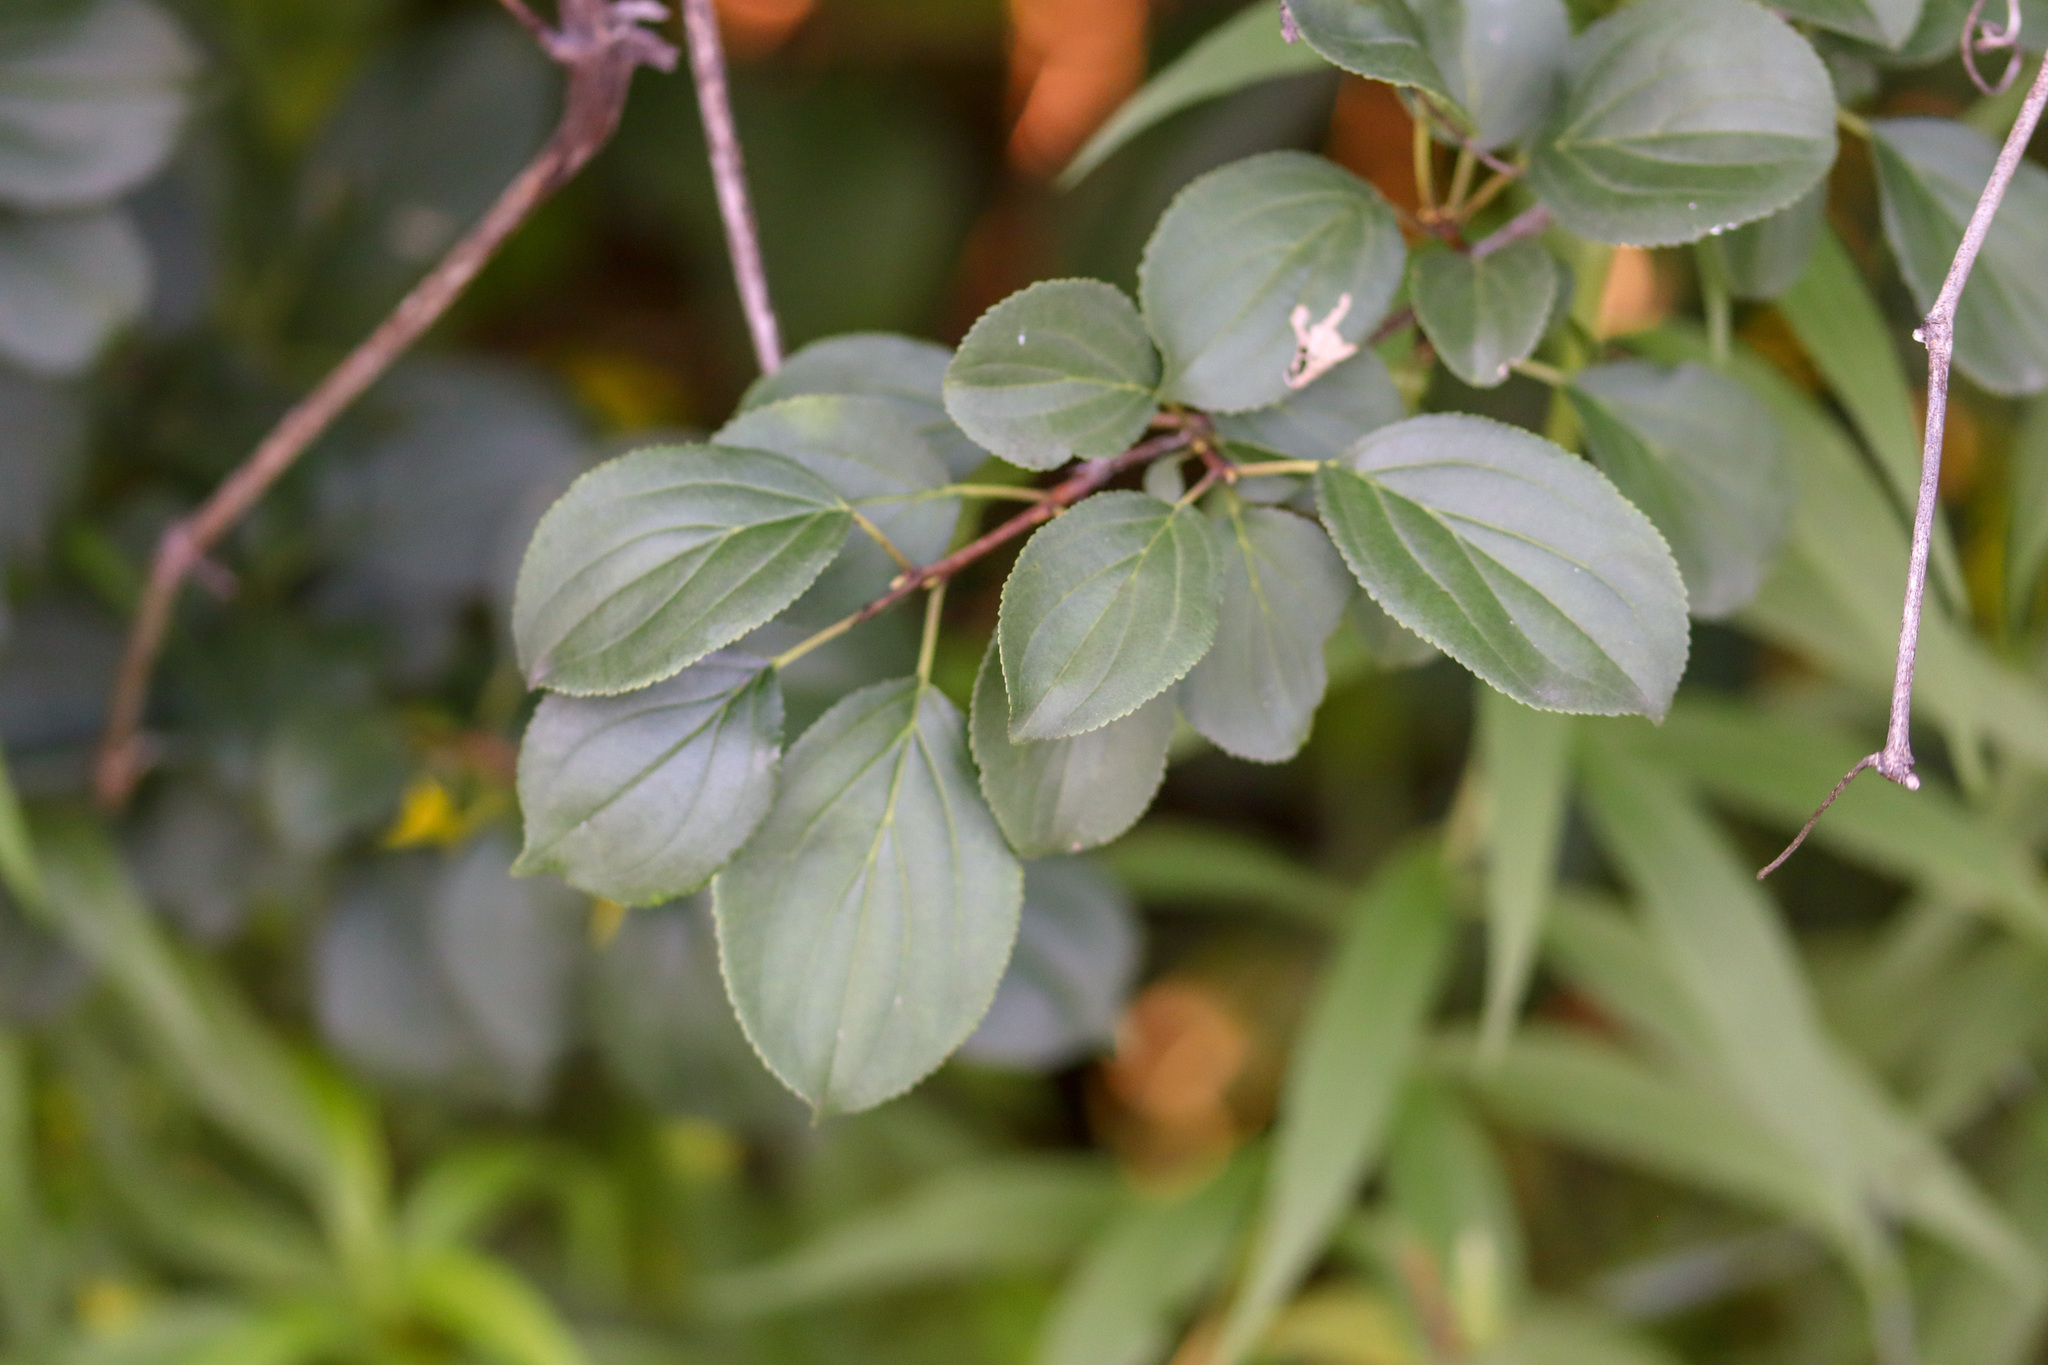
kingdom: Plantae
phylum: Tracheophyta
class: Magnoliopsida
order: Rosales
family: Rhamnaceae
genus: Rhamnus
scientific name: Rhamnus cathartica
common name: Common buckthorn
